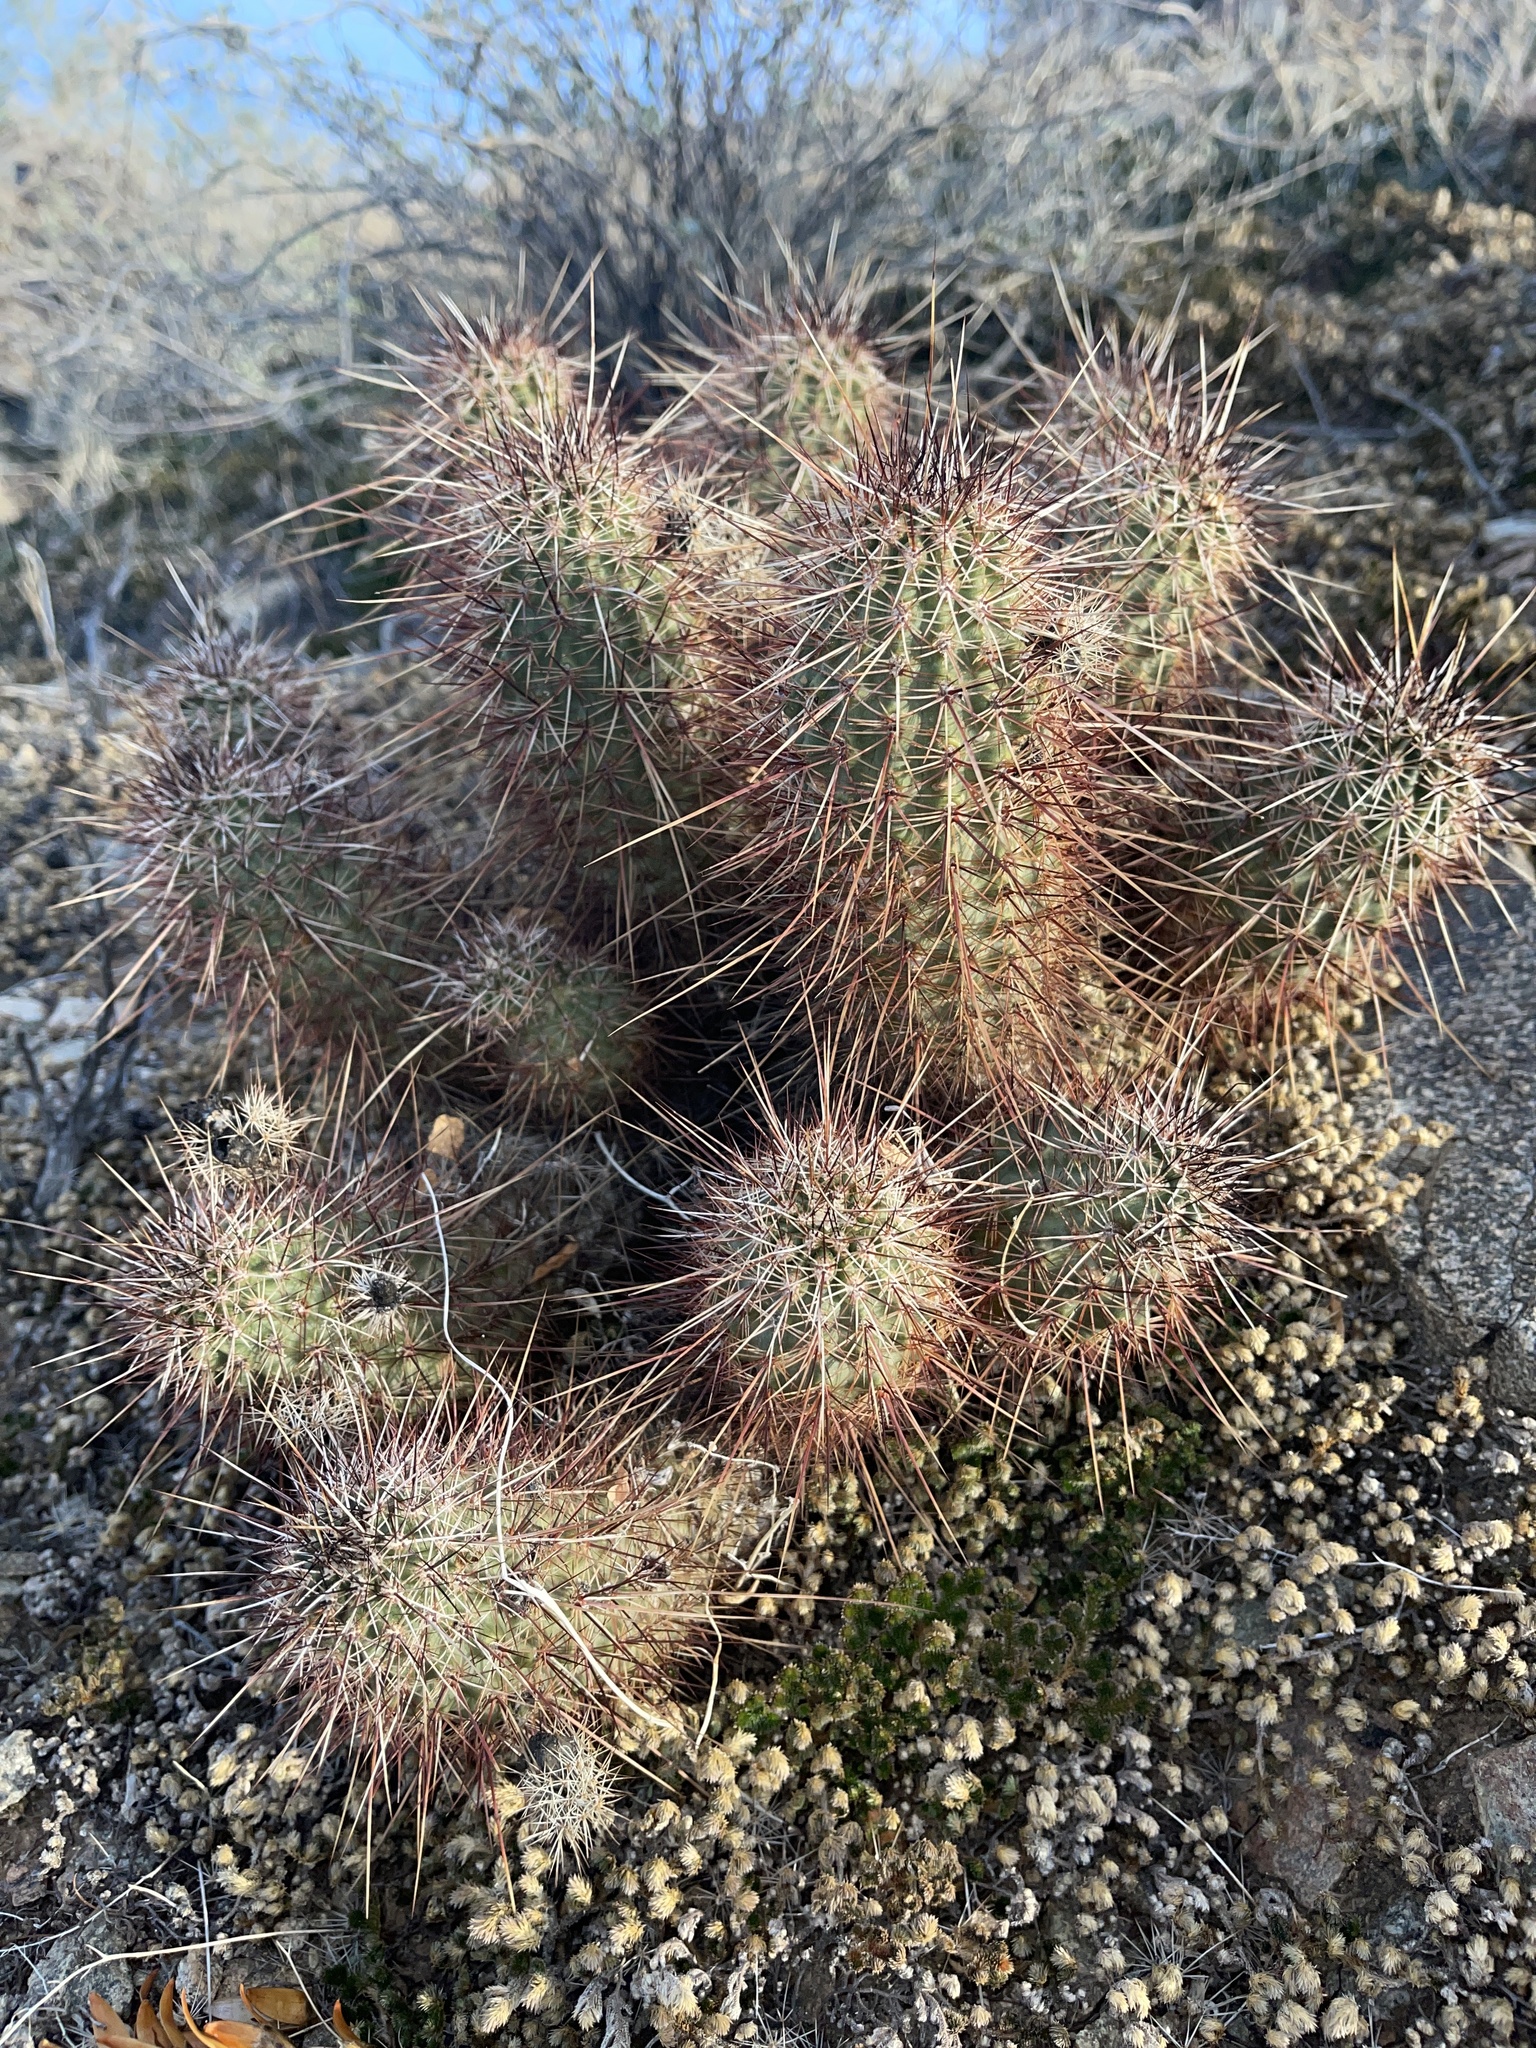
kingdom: Plantae
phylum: Tracheophyta
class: Magnoliopsida
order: Caryophyllales
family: Cactaceae
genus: Echinocereus
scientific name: Echinocereus engelmannii
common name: Engelmann's hedgehog cactus
